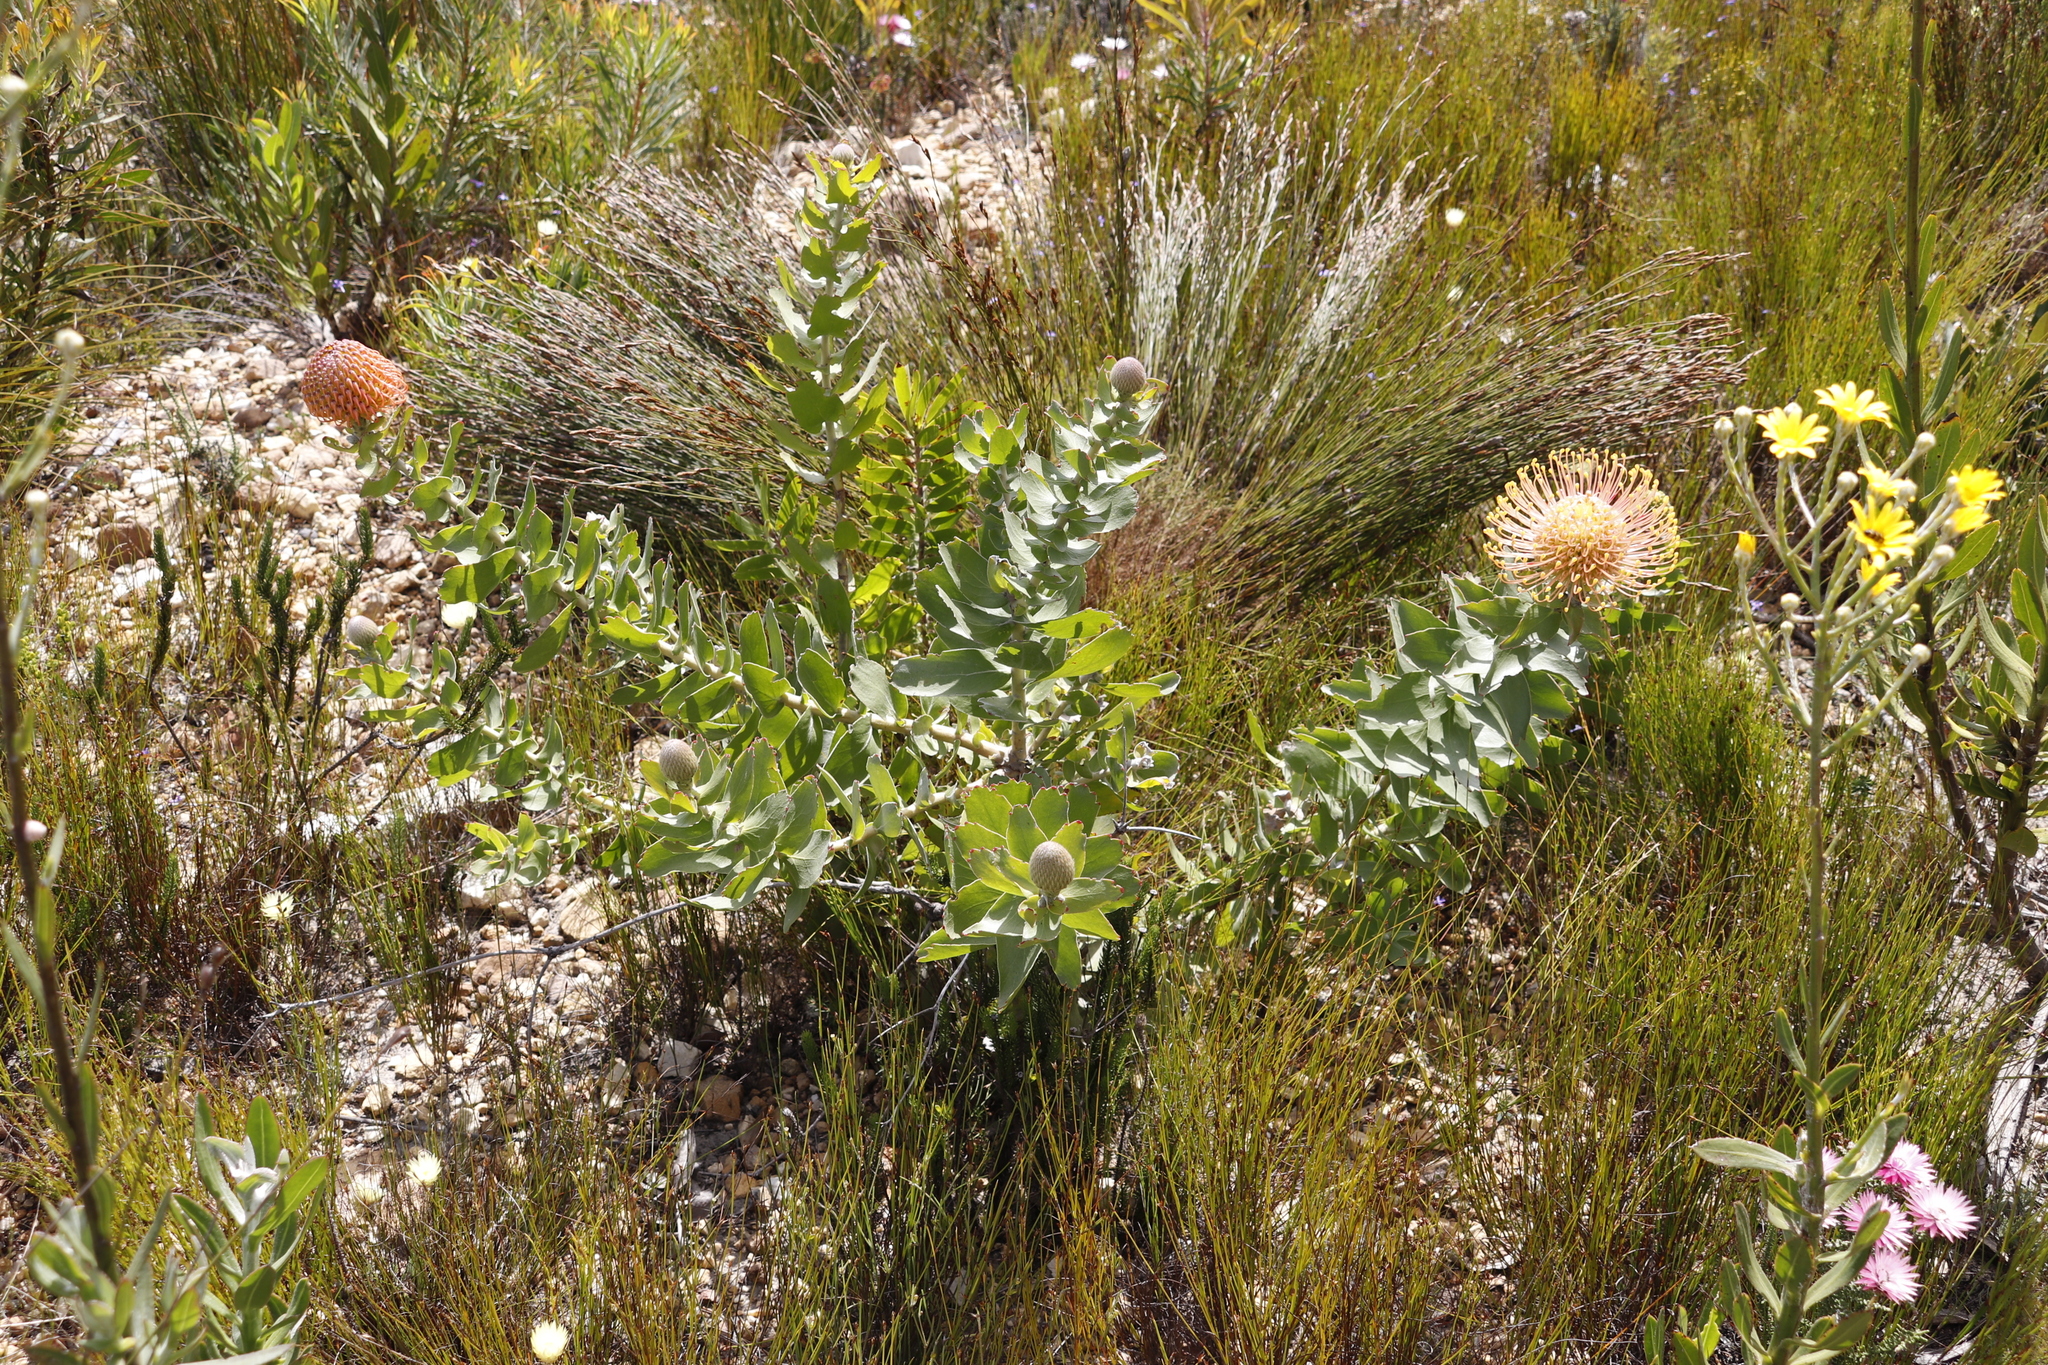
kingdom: Plantae
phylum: Tracheophyta
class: Magnoliopsida
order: Proteales
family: Proteaceae
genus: Leucospermum
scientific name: Leucospermum cordifolium
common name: Red pincushion-protea
